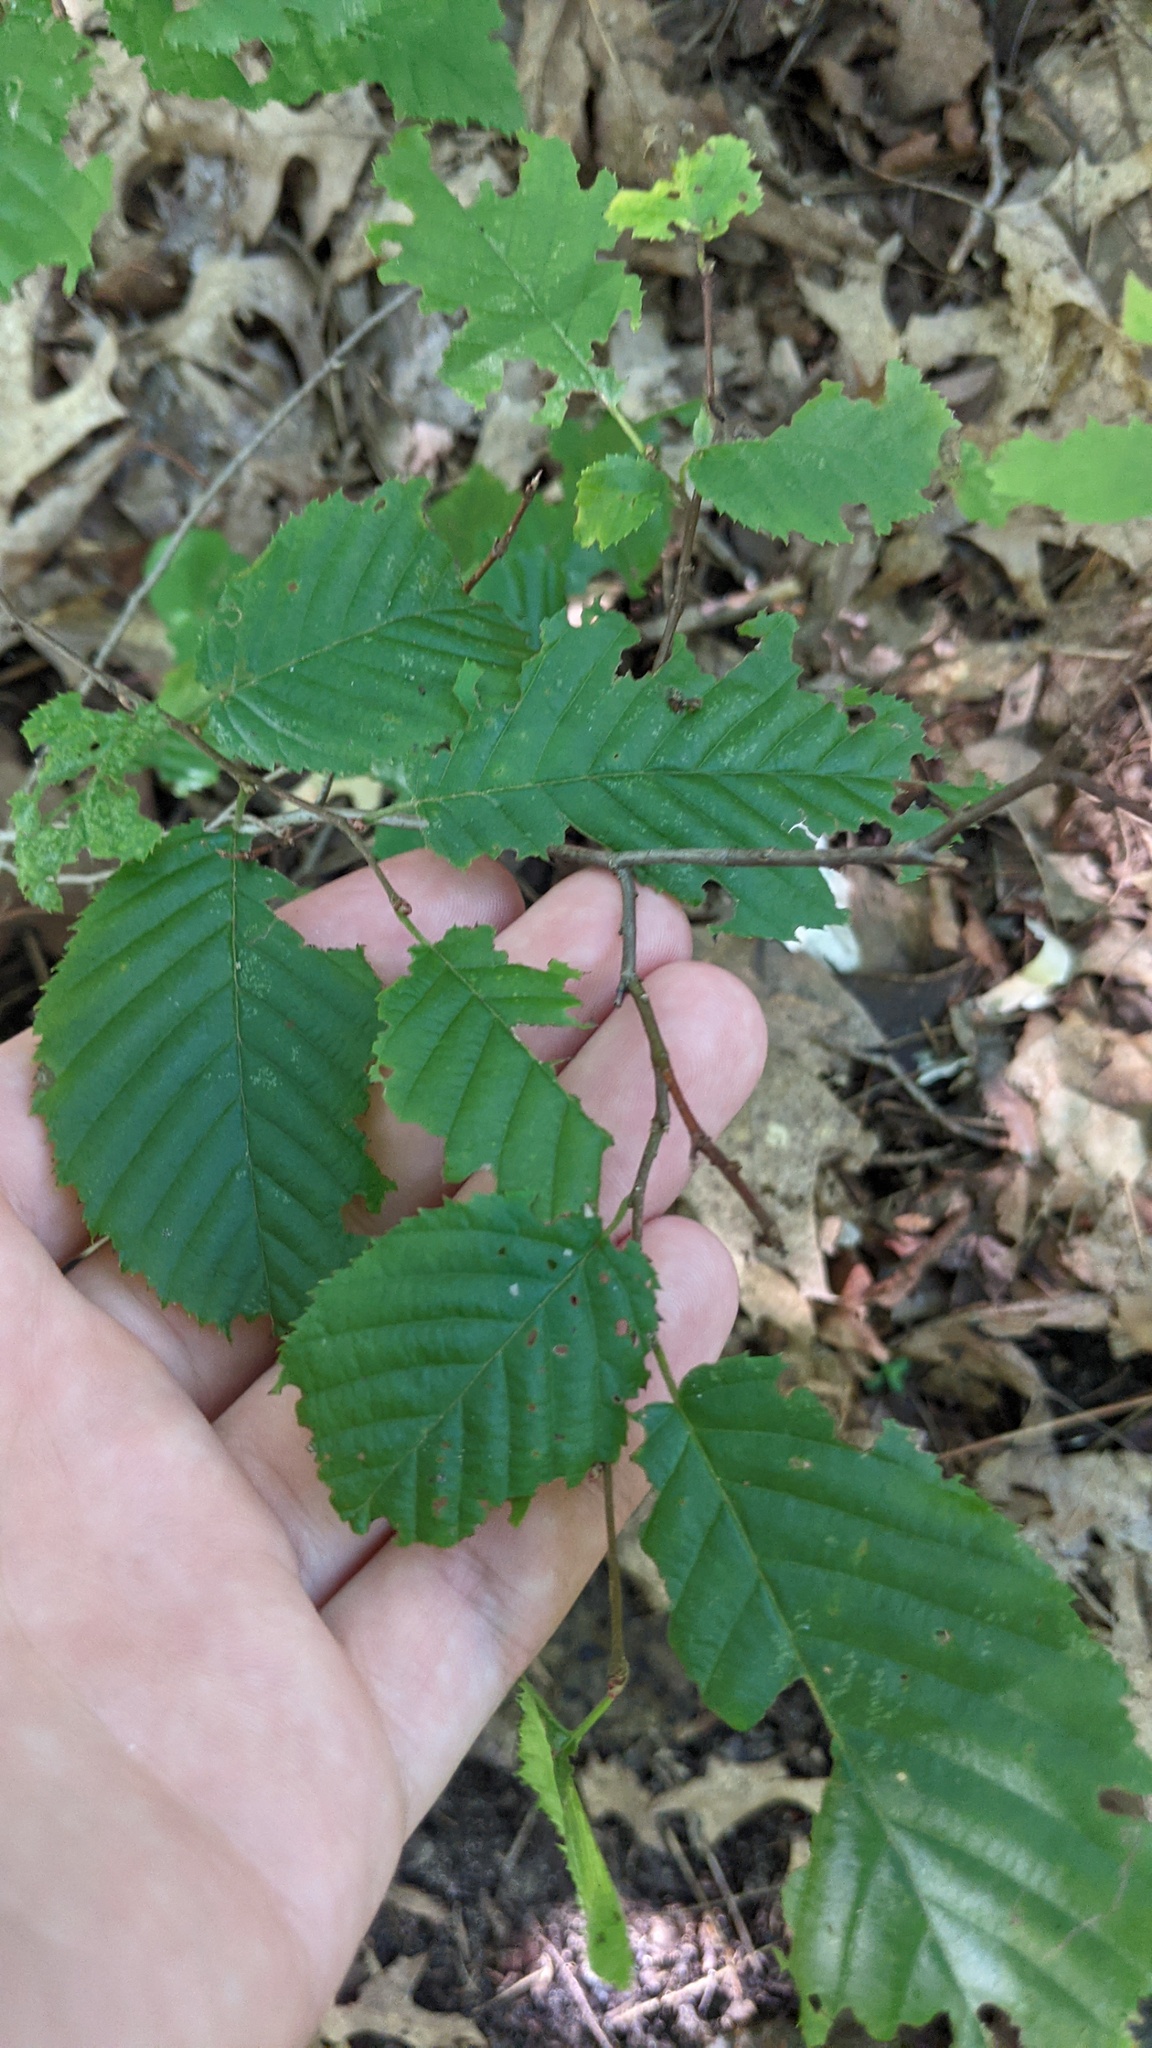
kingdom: Plantae
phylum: Tracheophyta
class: Magnoliopsida
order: Fagales
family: Betulaceae
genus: Carpinus
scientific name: Carpinus caroliniana
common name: American hornbeam
